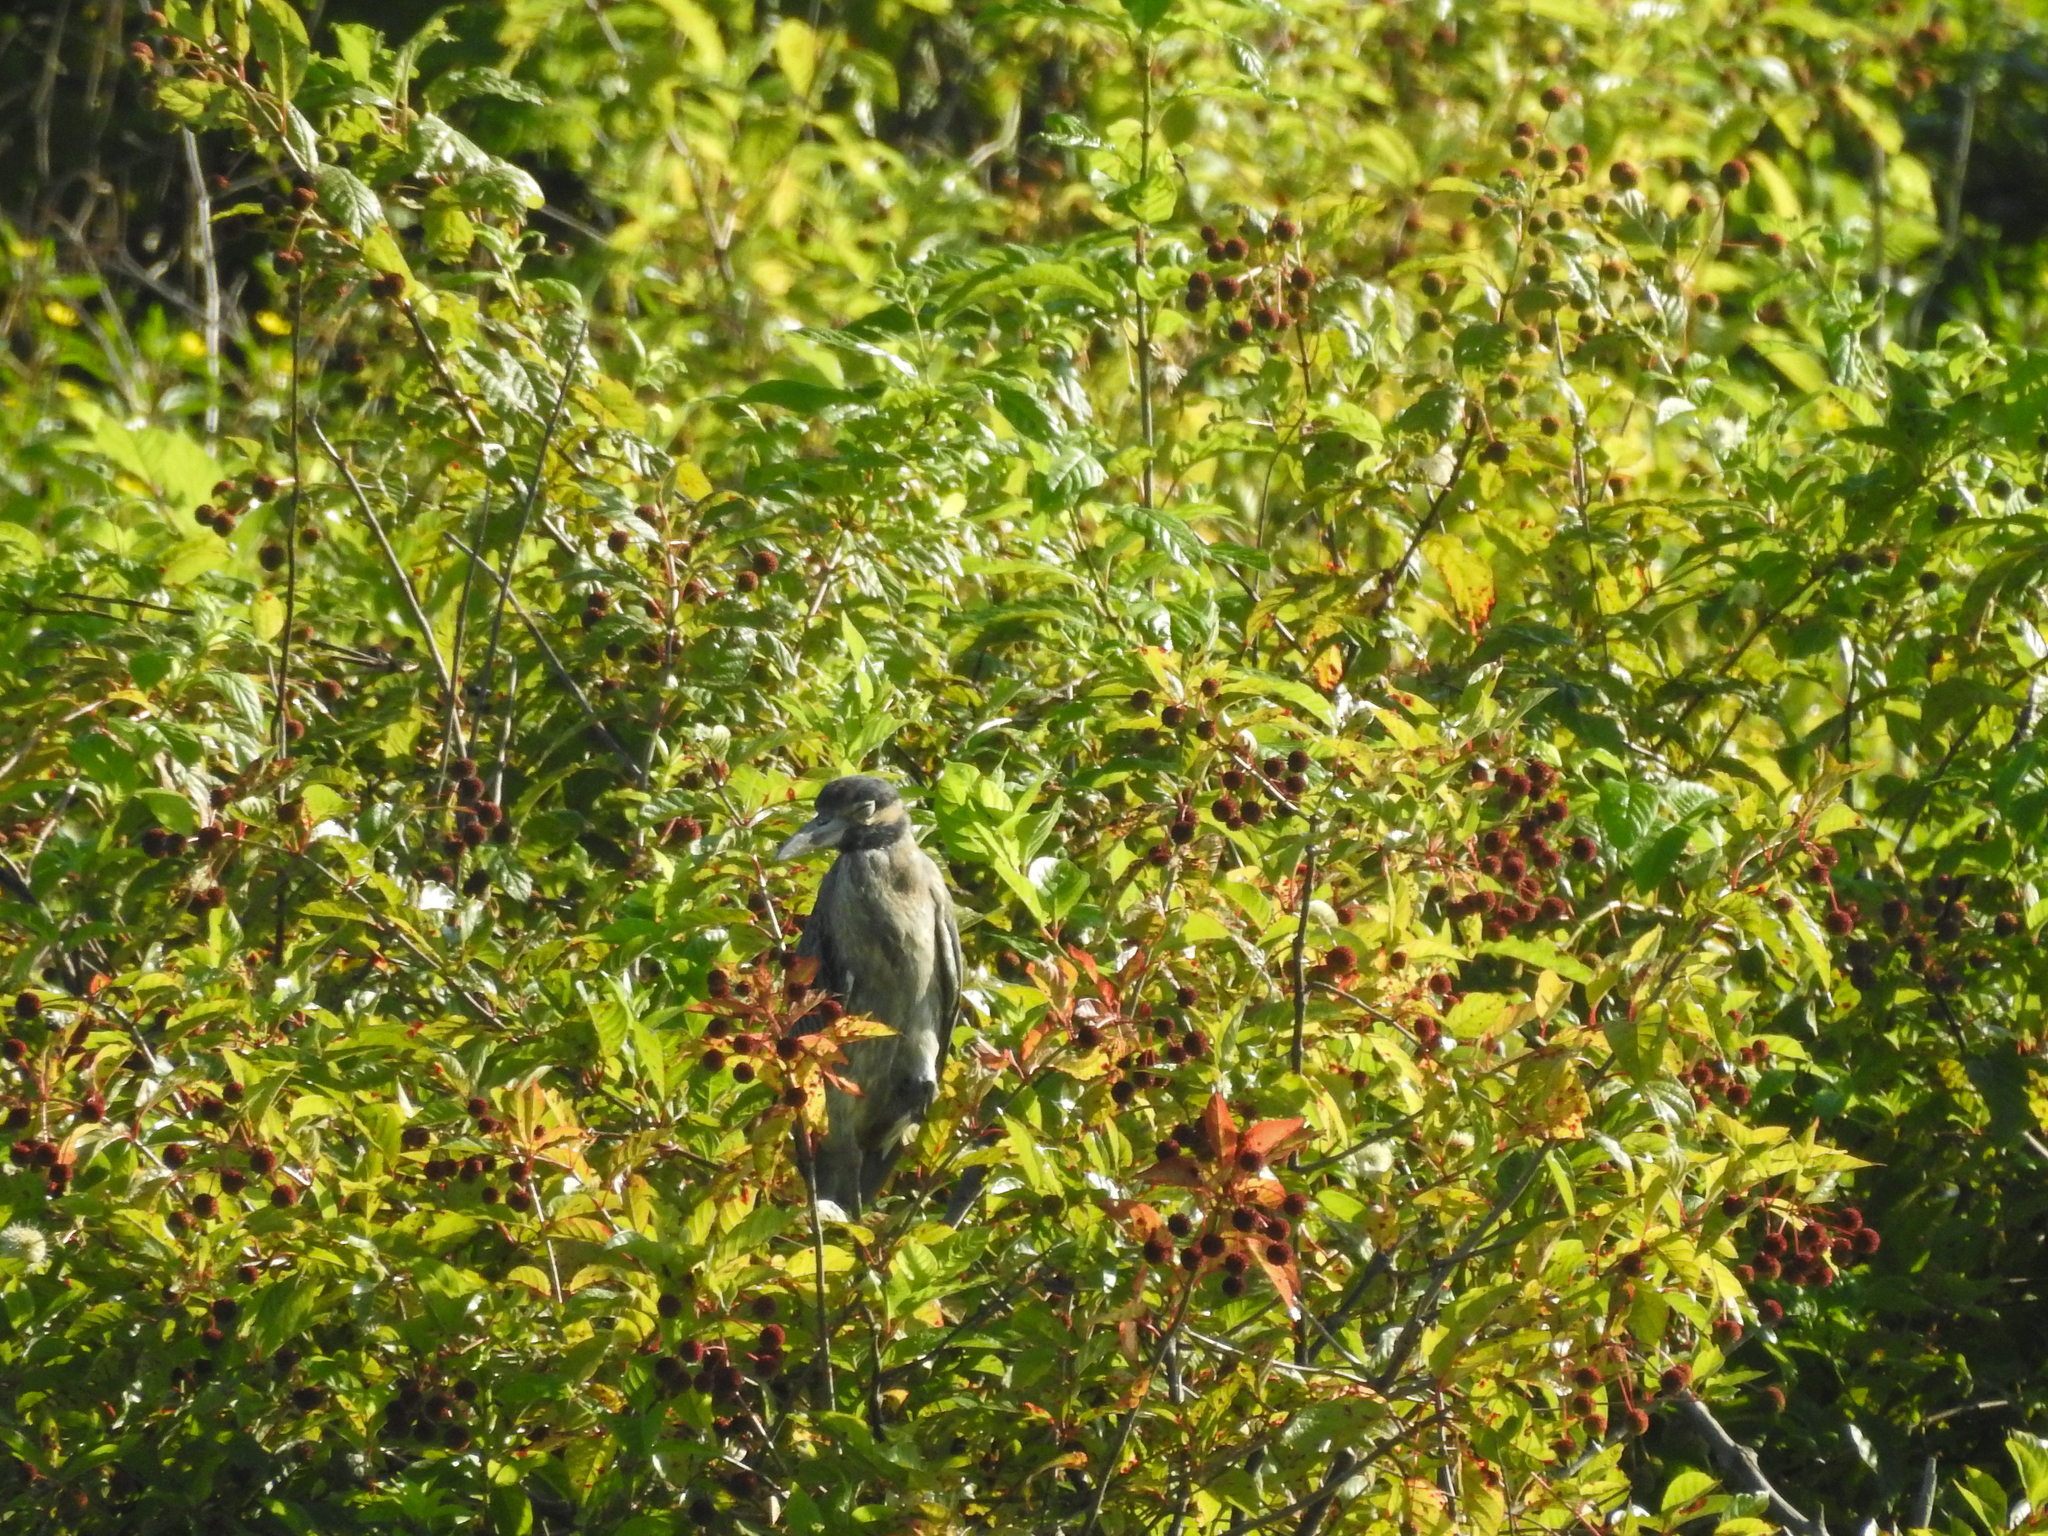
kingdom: Animalia
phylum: Chordata
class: Aves
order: Pelecaniformes
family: Ardeidae
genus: Nyctanassa
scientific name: Nyctanassa violacea
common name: Yellow-crowned night heron
